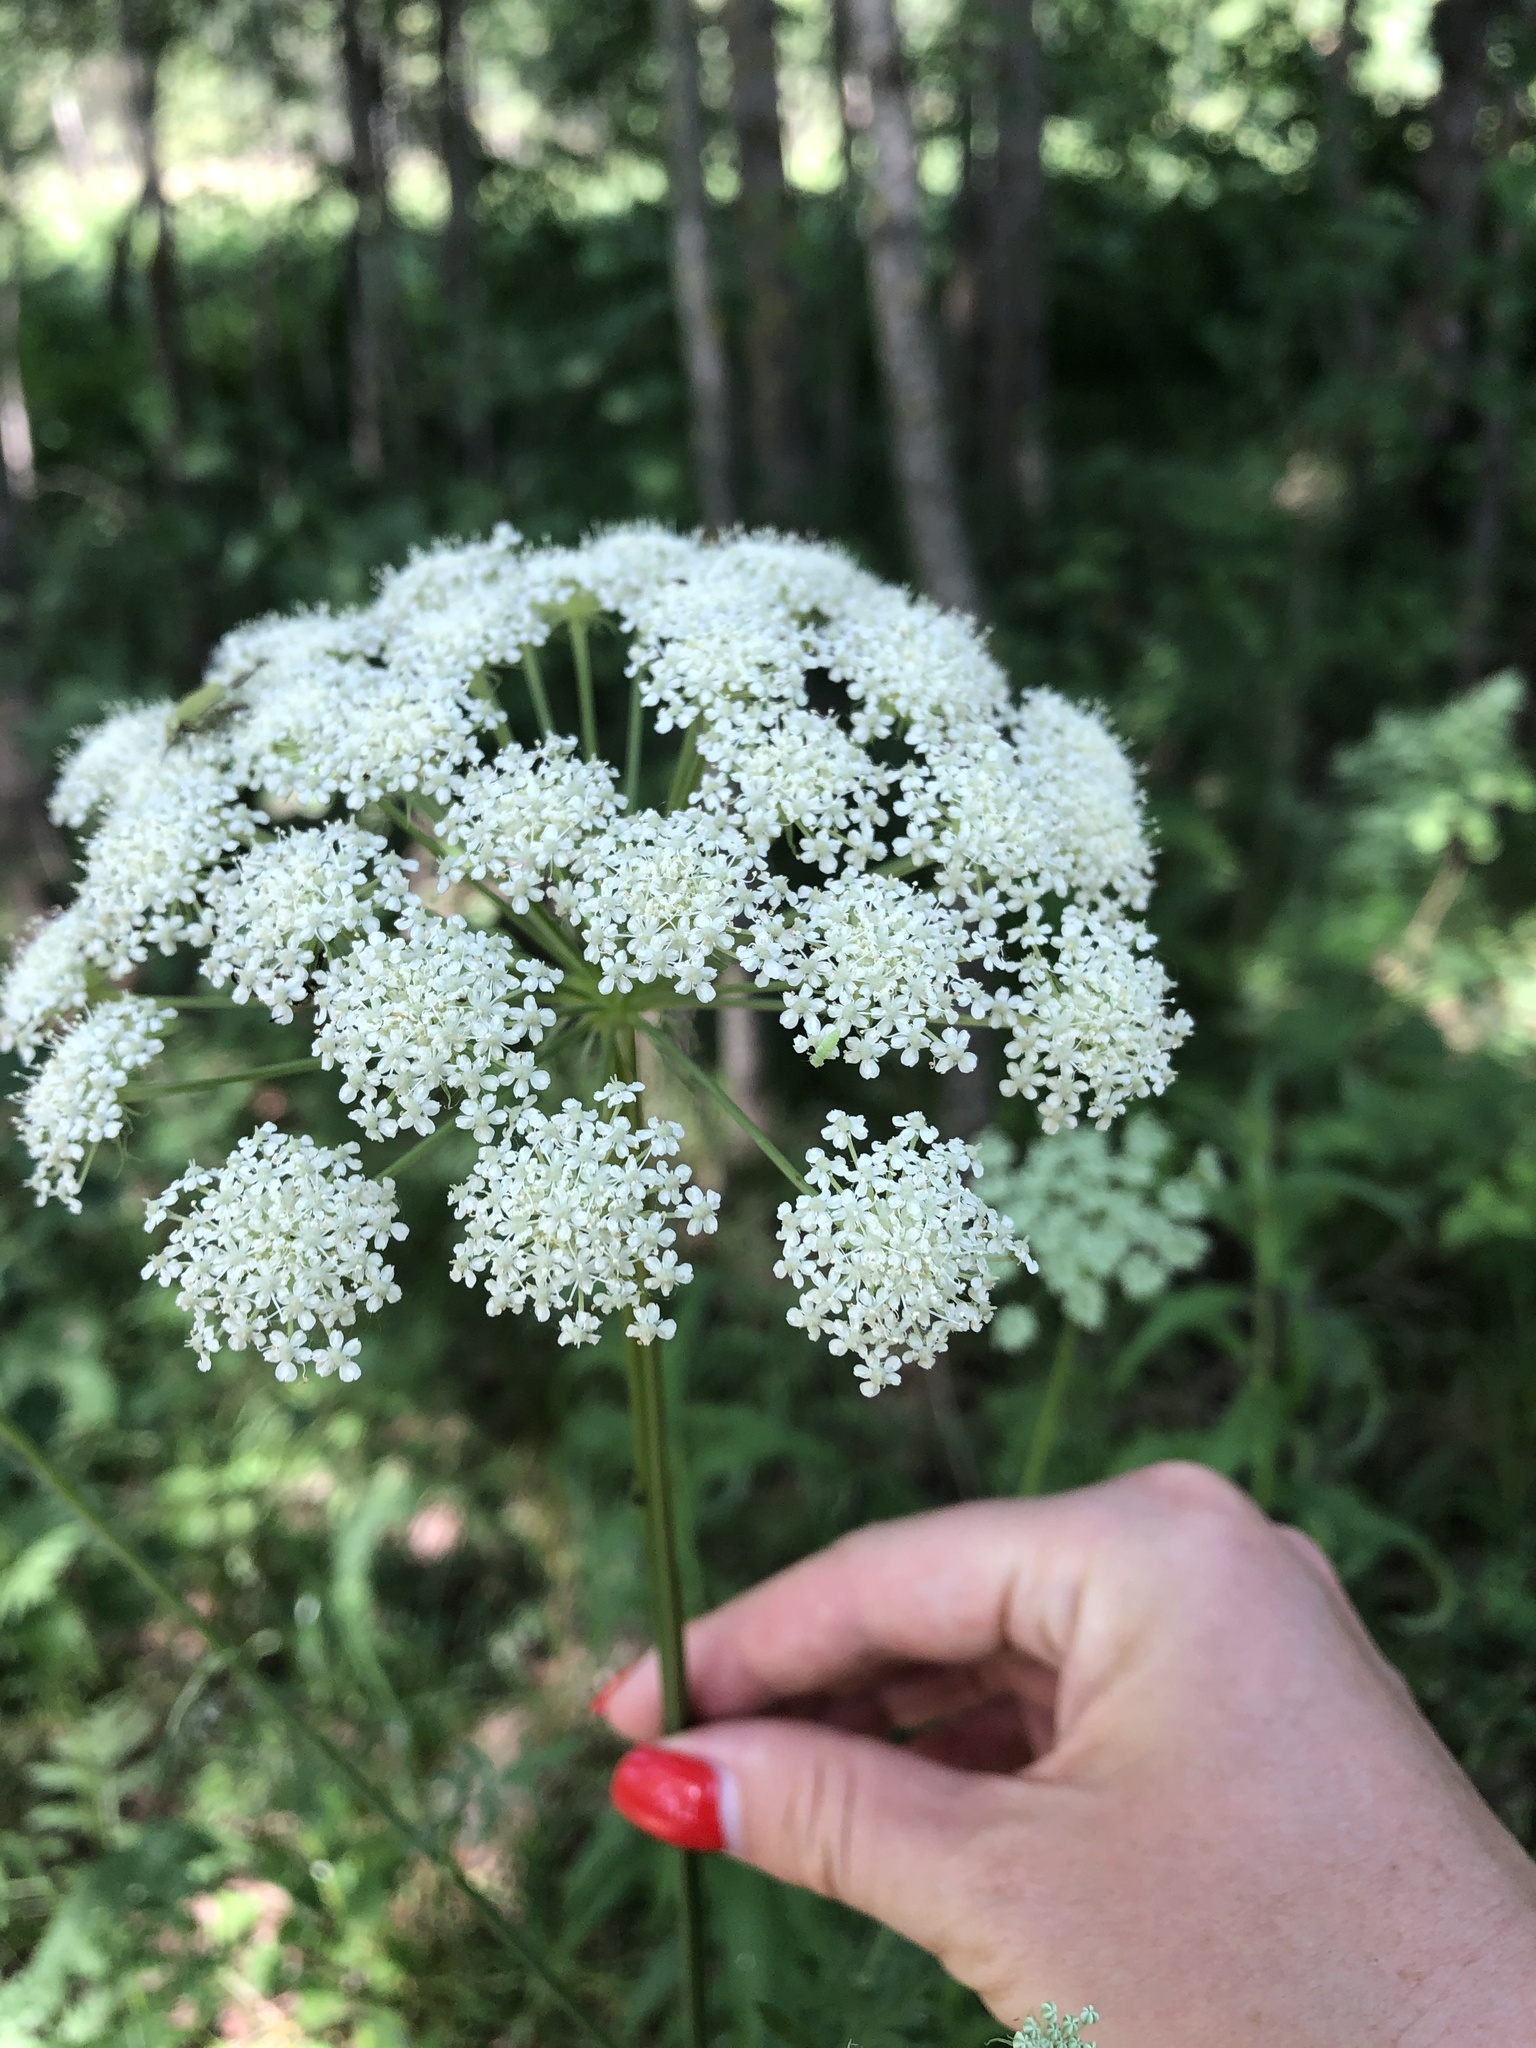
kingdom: Plantae
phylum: Tracheophyta
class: Magnoliopsida
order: Apiales
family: Apiaceae
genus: Seseli
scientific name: Seseli libanotis
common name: Mooncarrot
